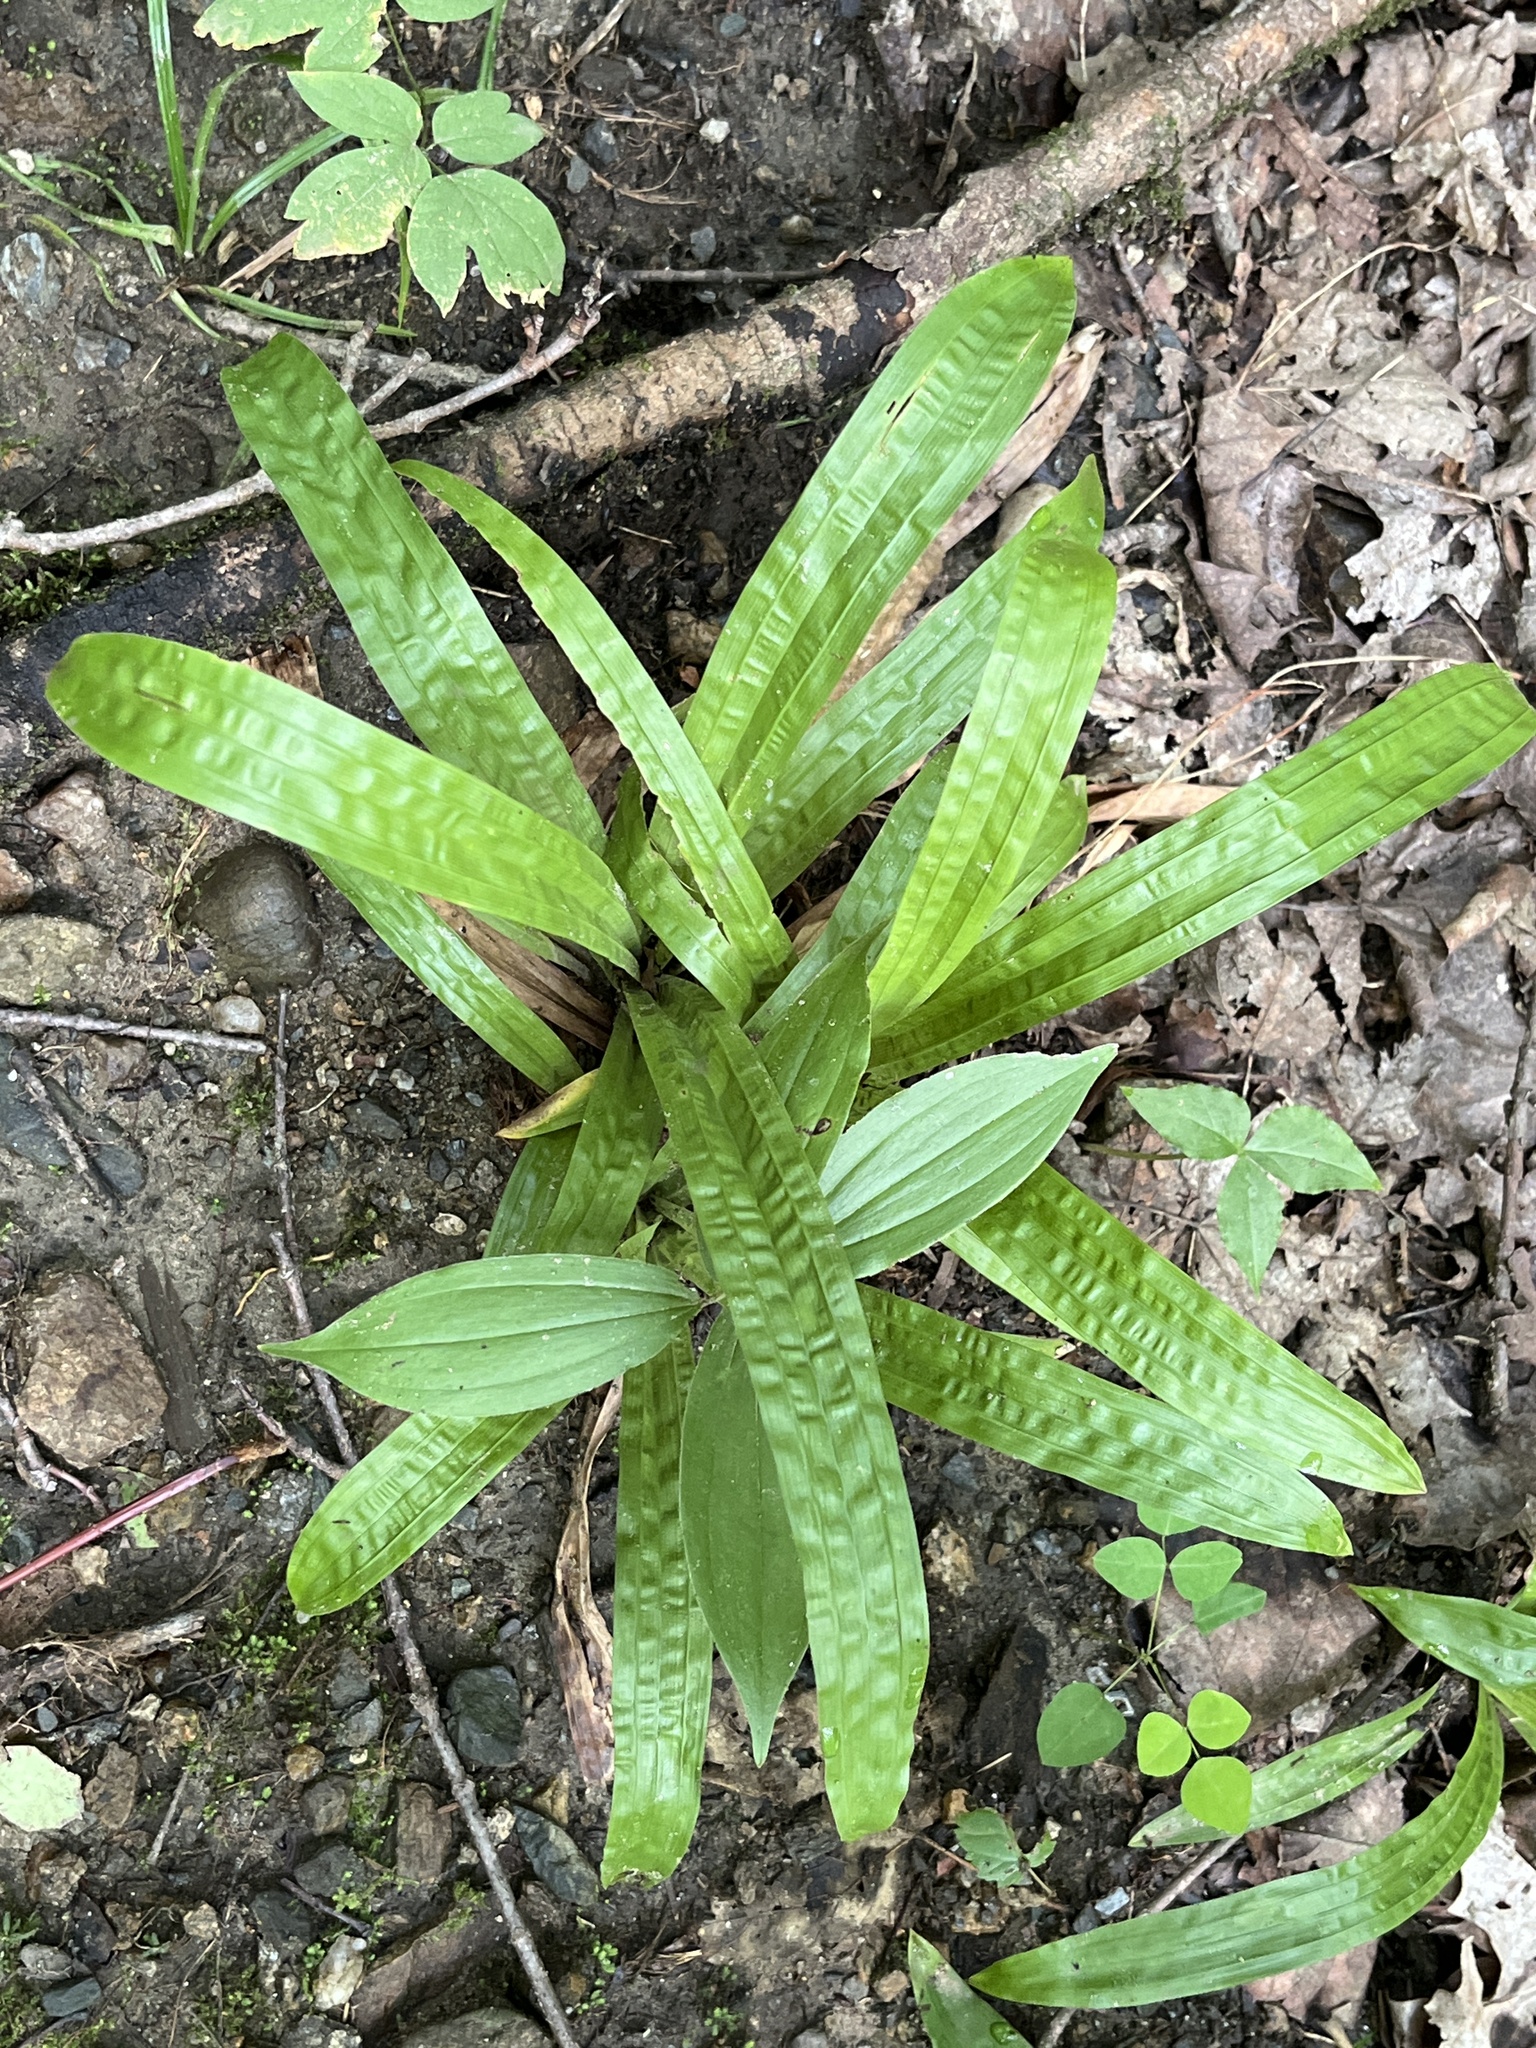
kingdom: Plantae
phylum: Tracheophyta
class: Liliopsida
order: Poales
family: Cyperaceae
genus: Carex
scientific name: Carex plantaginea
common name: Plantain-leaved sedge
